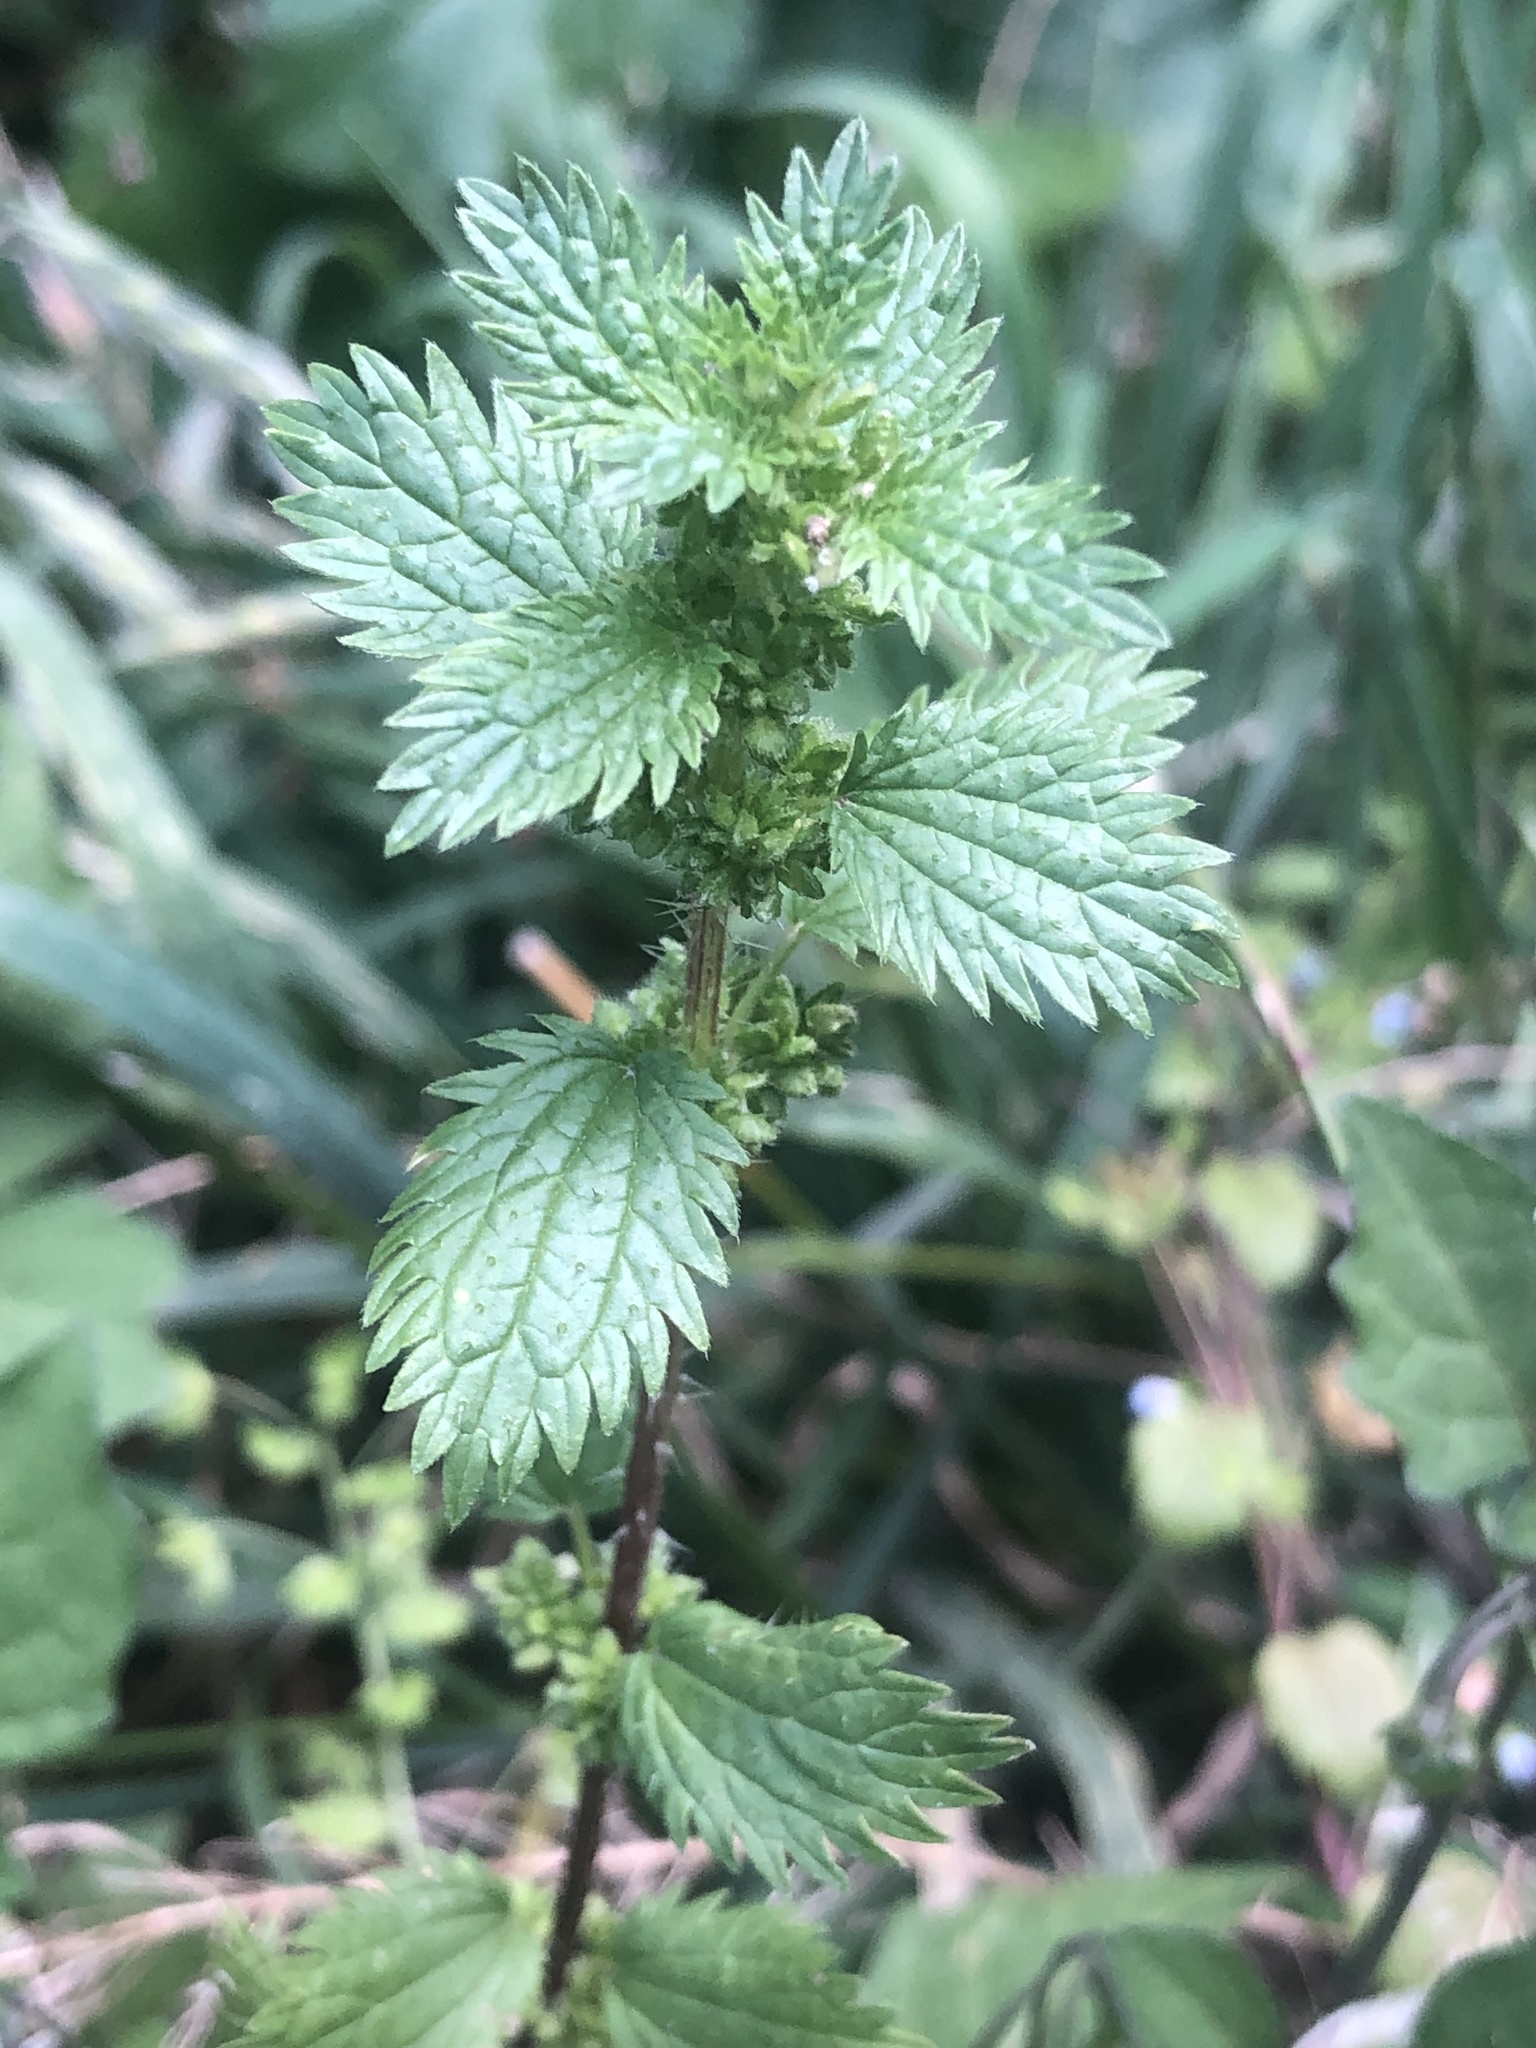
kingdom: Plantae
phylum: Tracheophyta
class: Magnoliopsida
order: Rosales
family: Urticaceae
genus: Urtica
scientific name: Urtica urens
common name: Dwarf nettle
